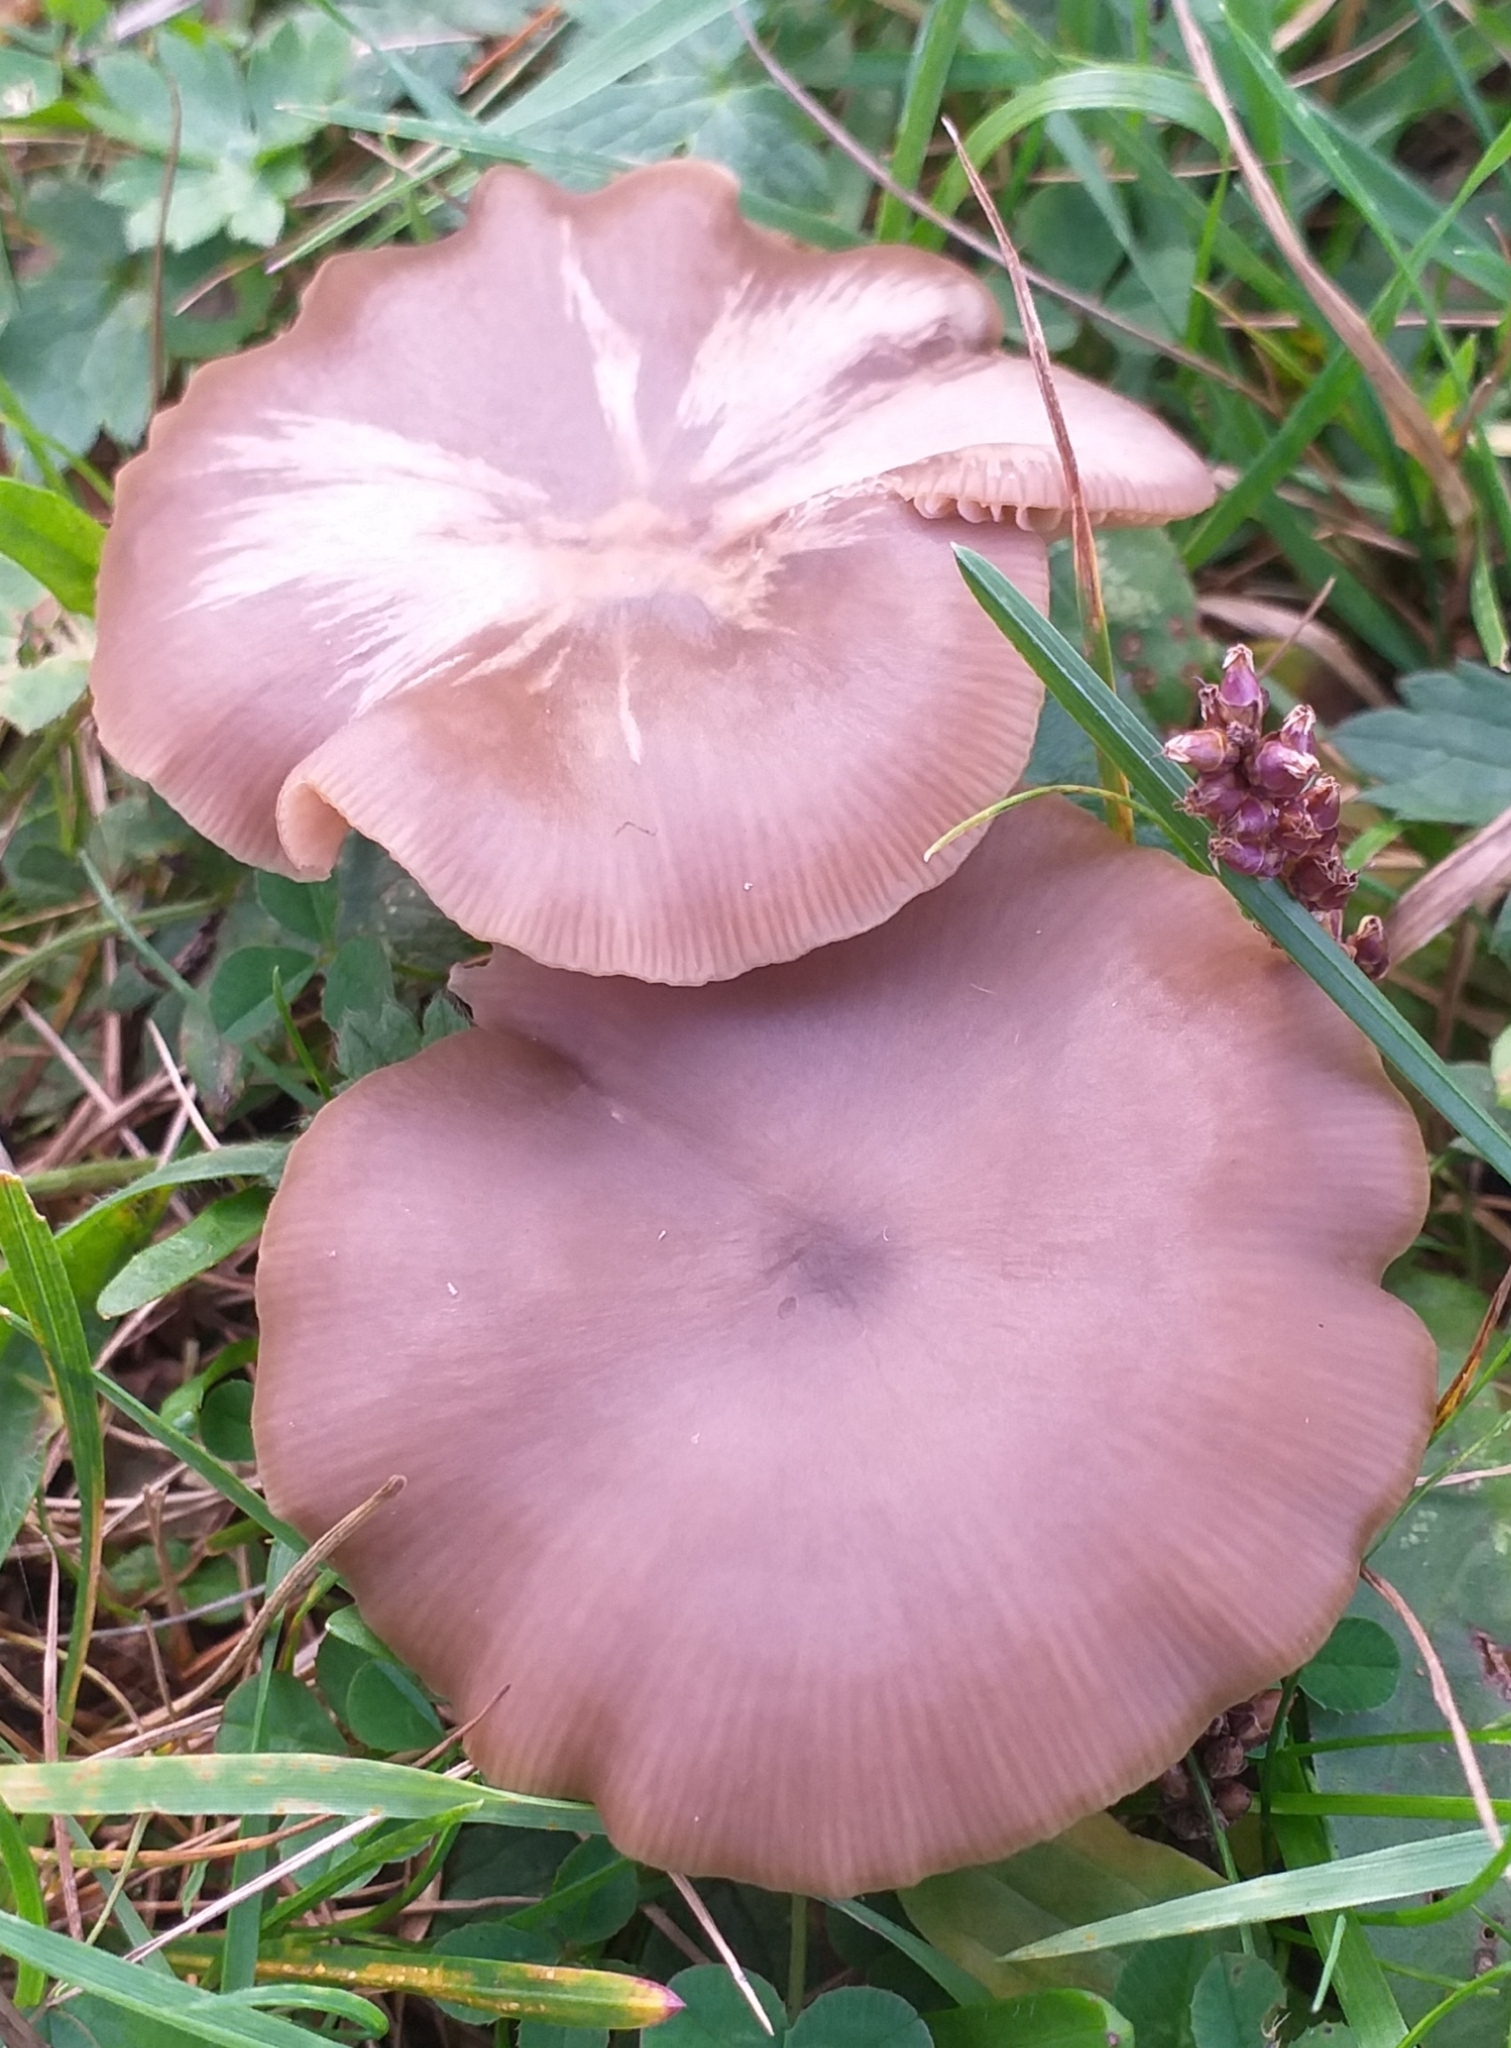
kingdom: Fungi
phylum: Basidiomycota
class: Agaricomycetes
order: Agaricales
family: Entolomataceae
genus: Entoloma
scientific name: Entoloma sericeum
